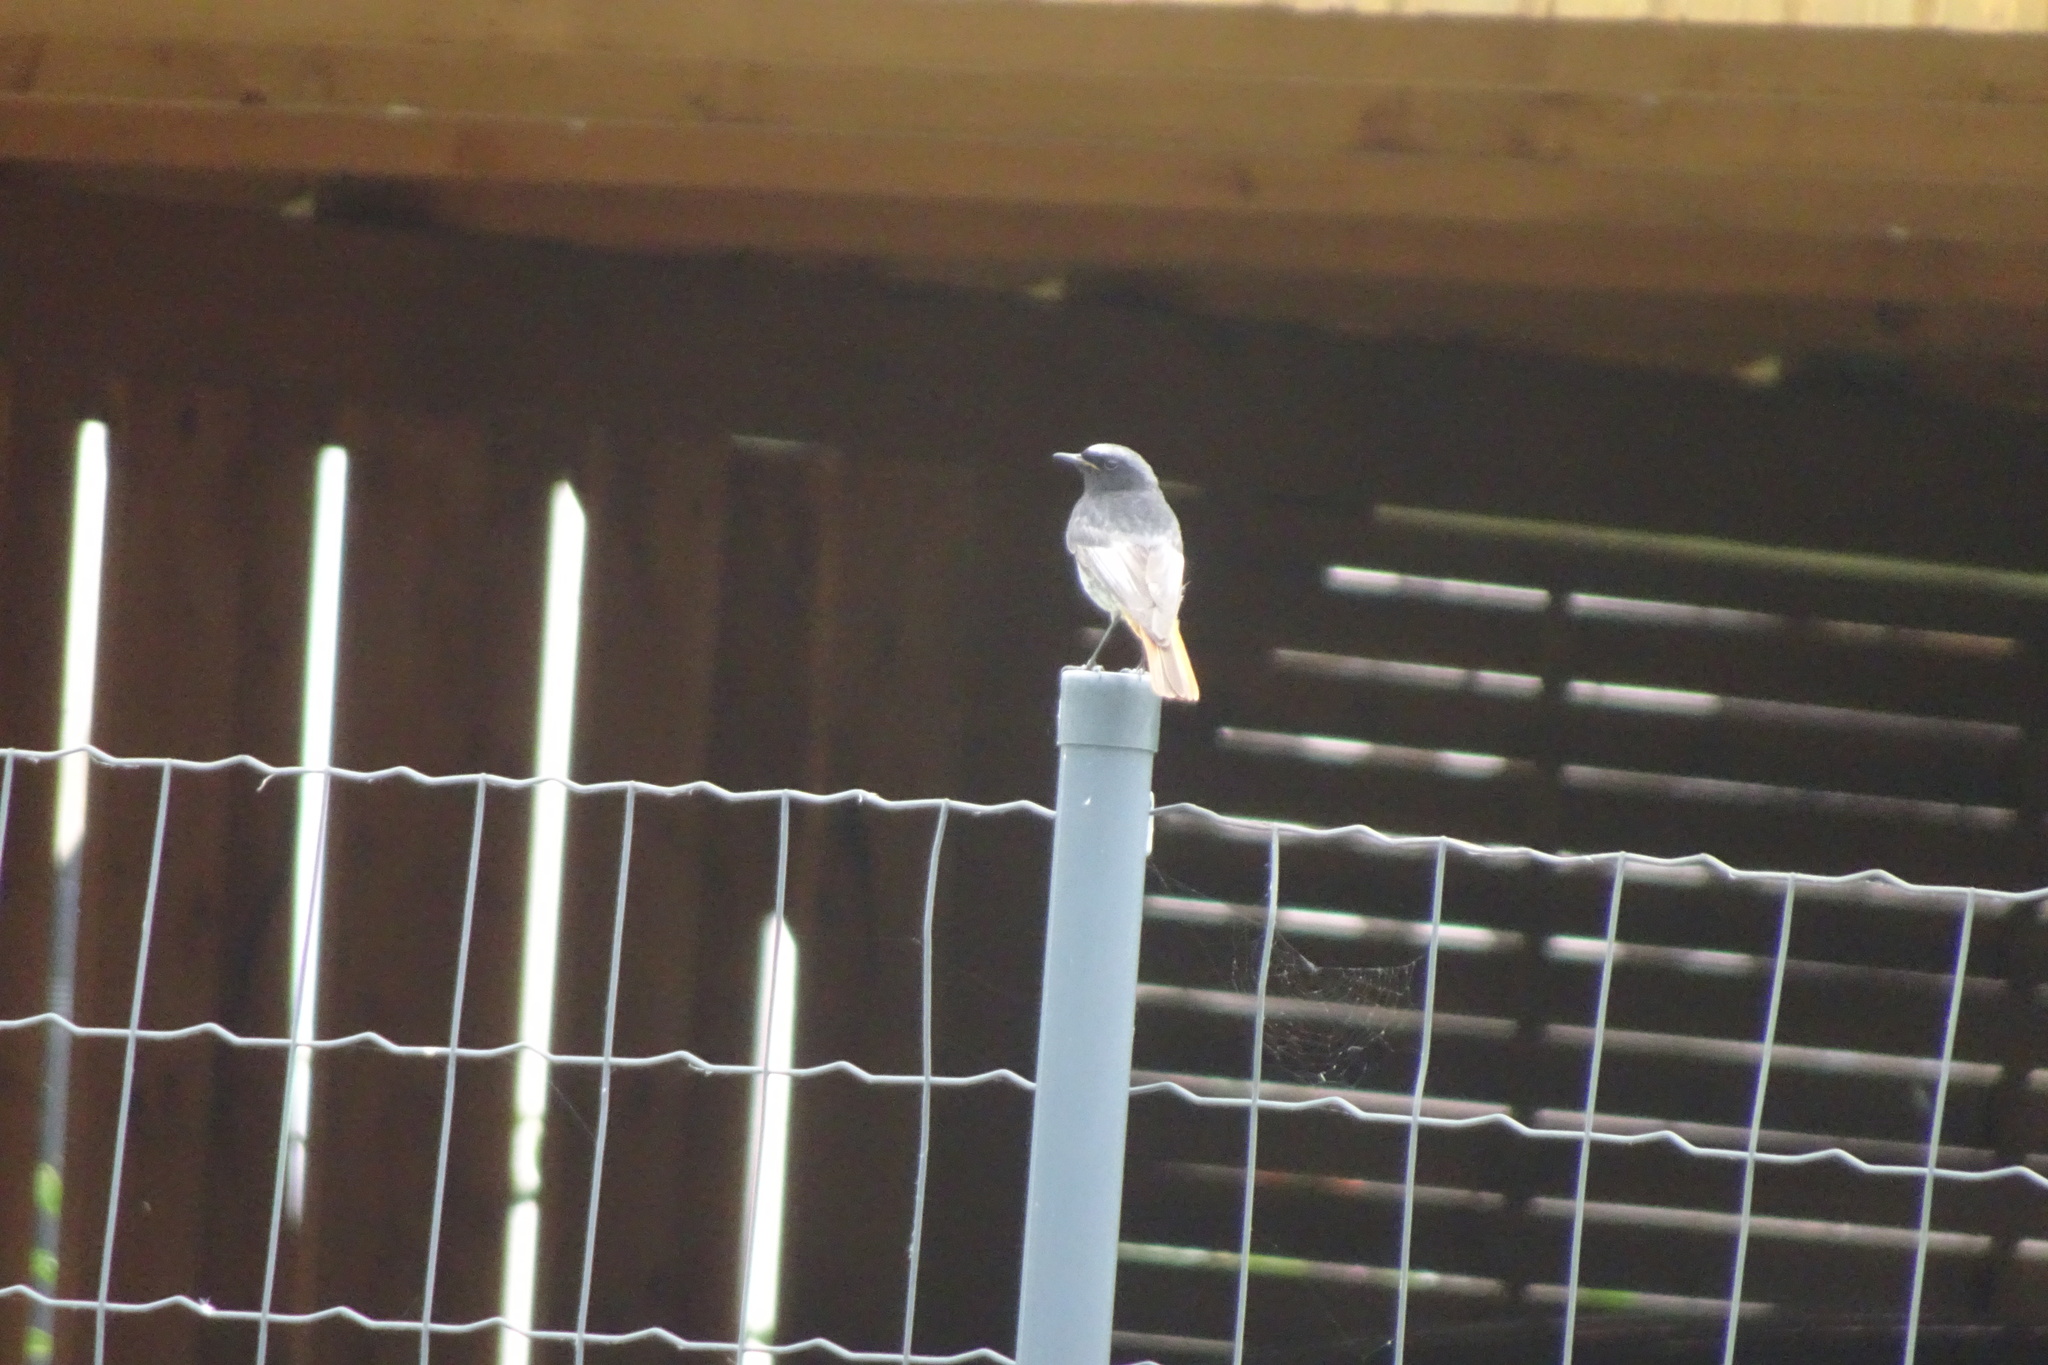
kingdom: Animalia
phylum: Chordata
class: Aves
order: Passeriformes
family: Muscicapidae
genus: Phoenicurus
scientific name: Phoenicurus ochruros
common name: Black redstart
